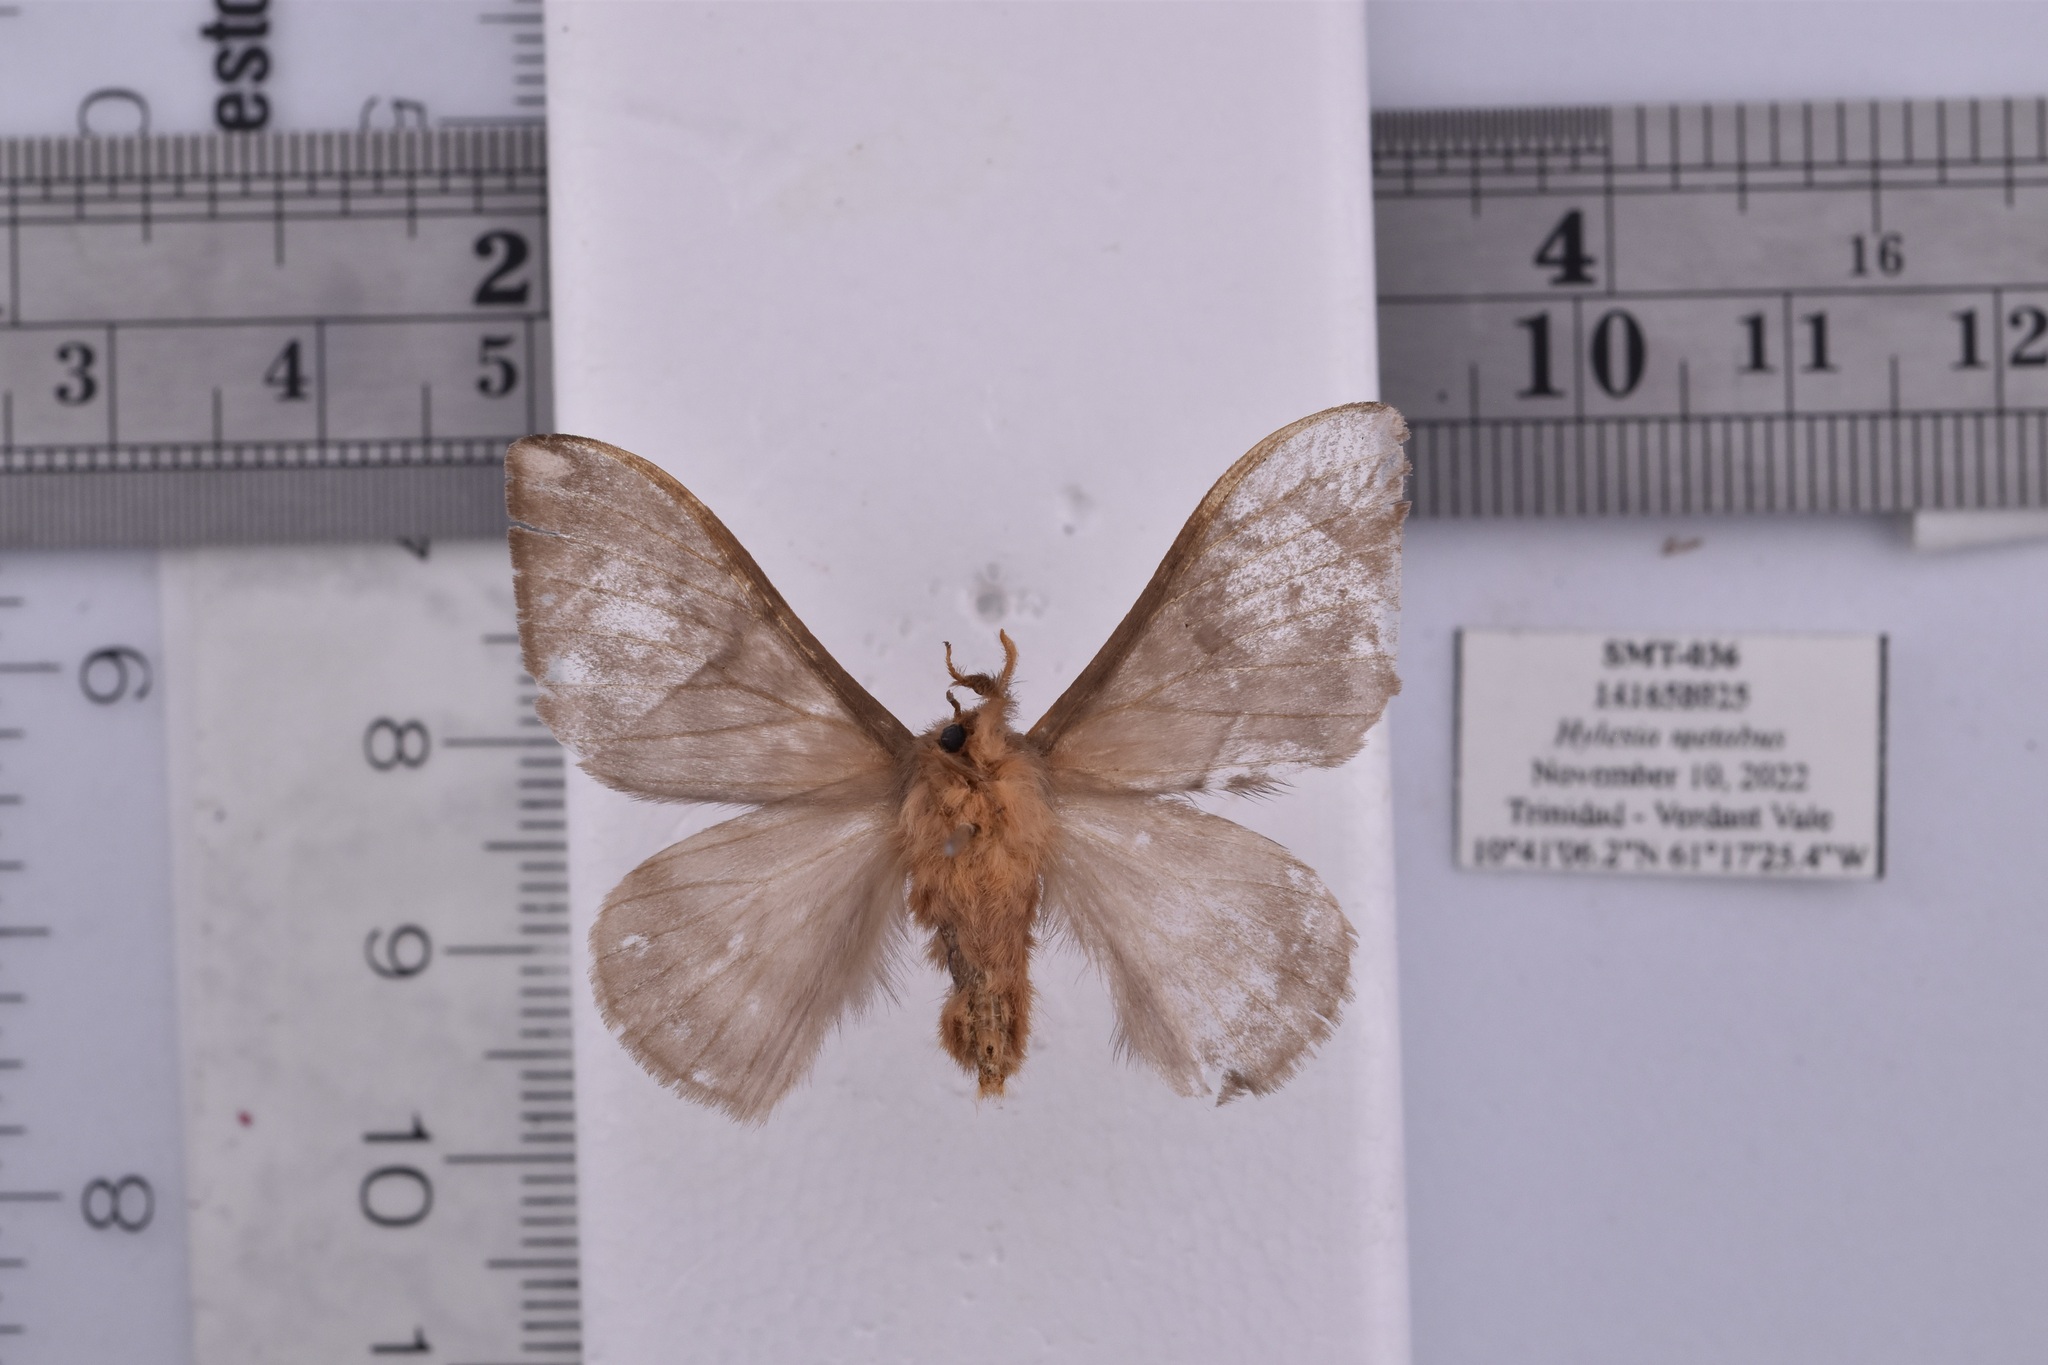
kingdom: Animalia
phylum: Arthropoda
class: Insecta
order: Lepidoptera
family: Saturniidae
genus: Hylesia
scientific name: Hylesia metabus
